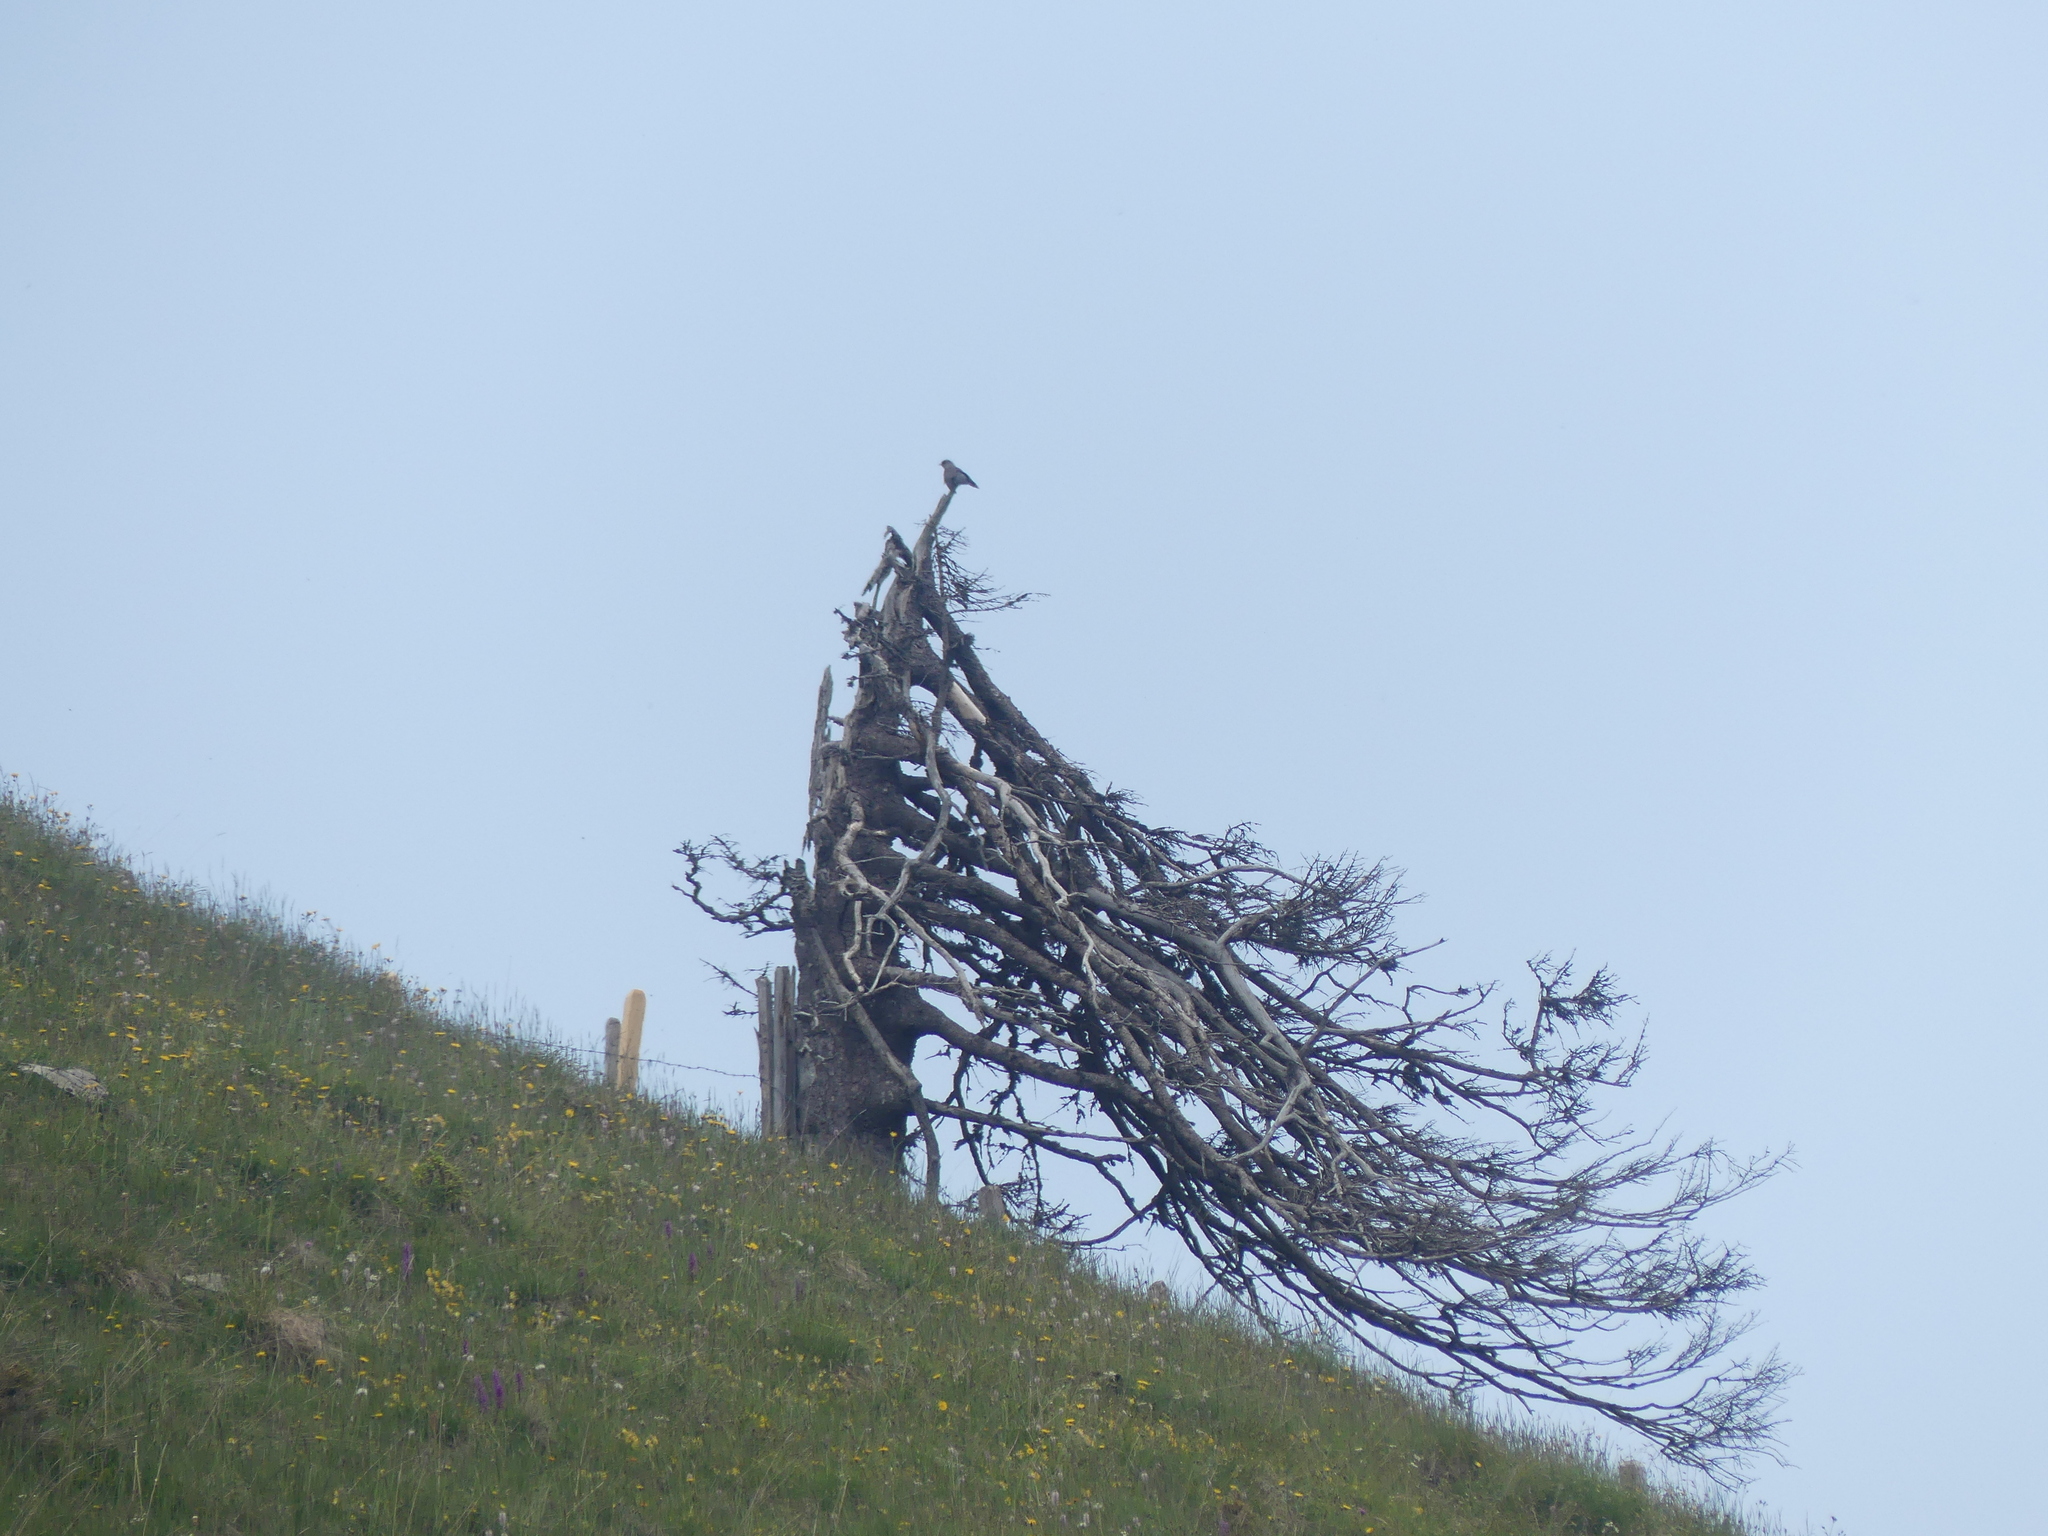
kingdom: Animalia
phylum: Chordata
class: Aves
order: Cuculiformes
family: Cuculidae
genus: Cuculus
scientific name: Cuculus canorus
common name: Common cuckoo
